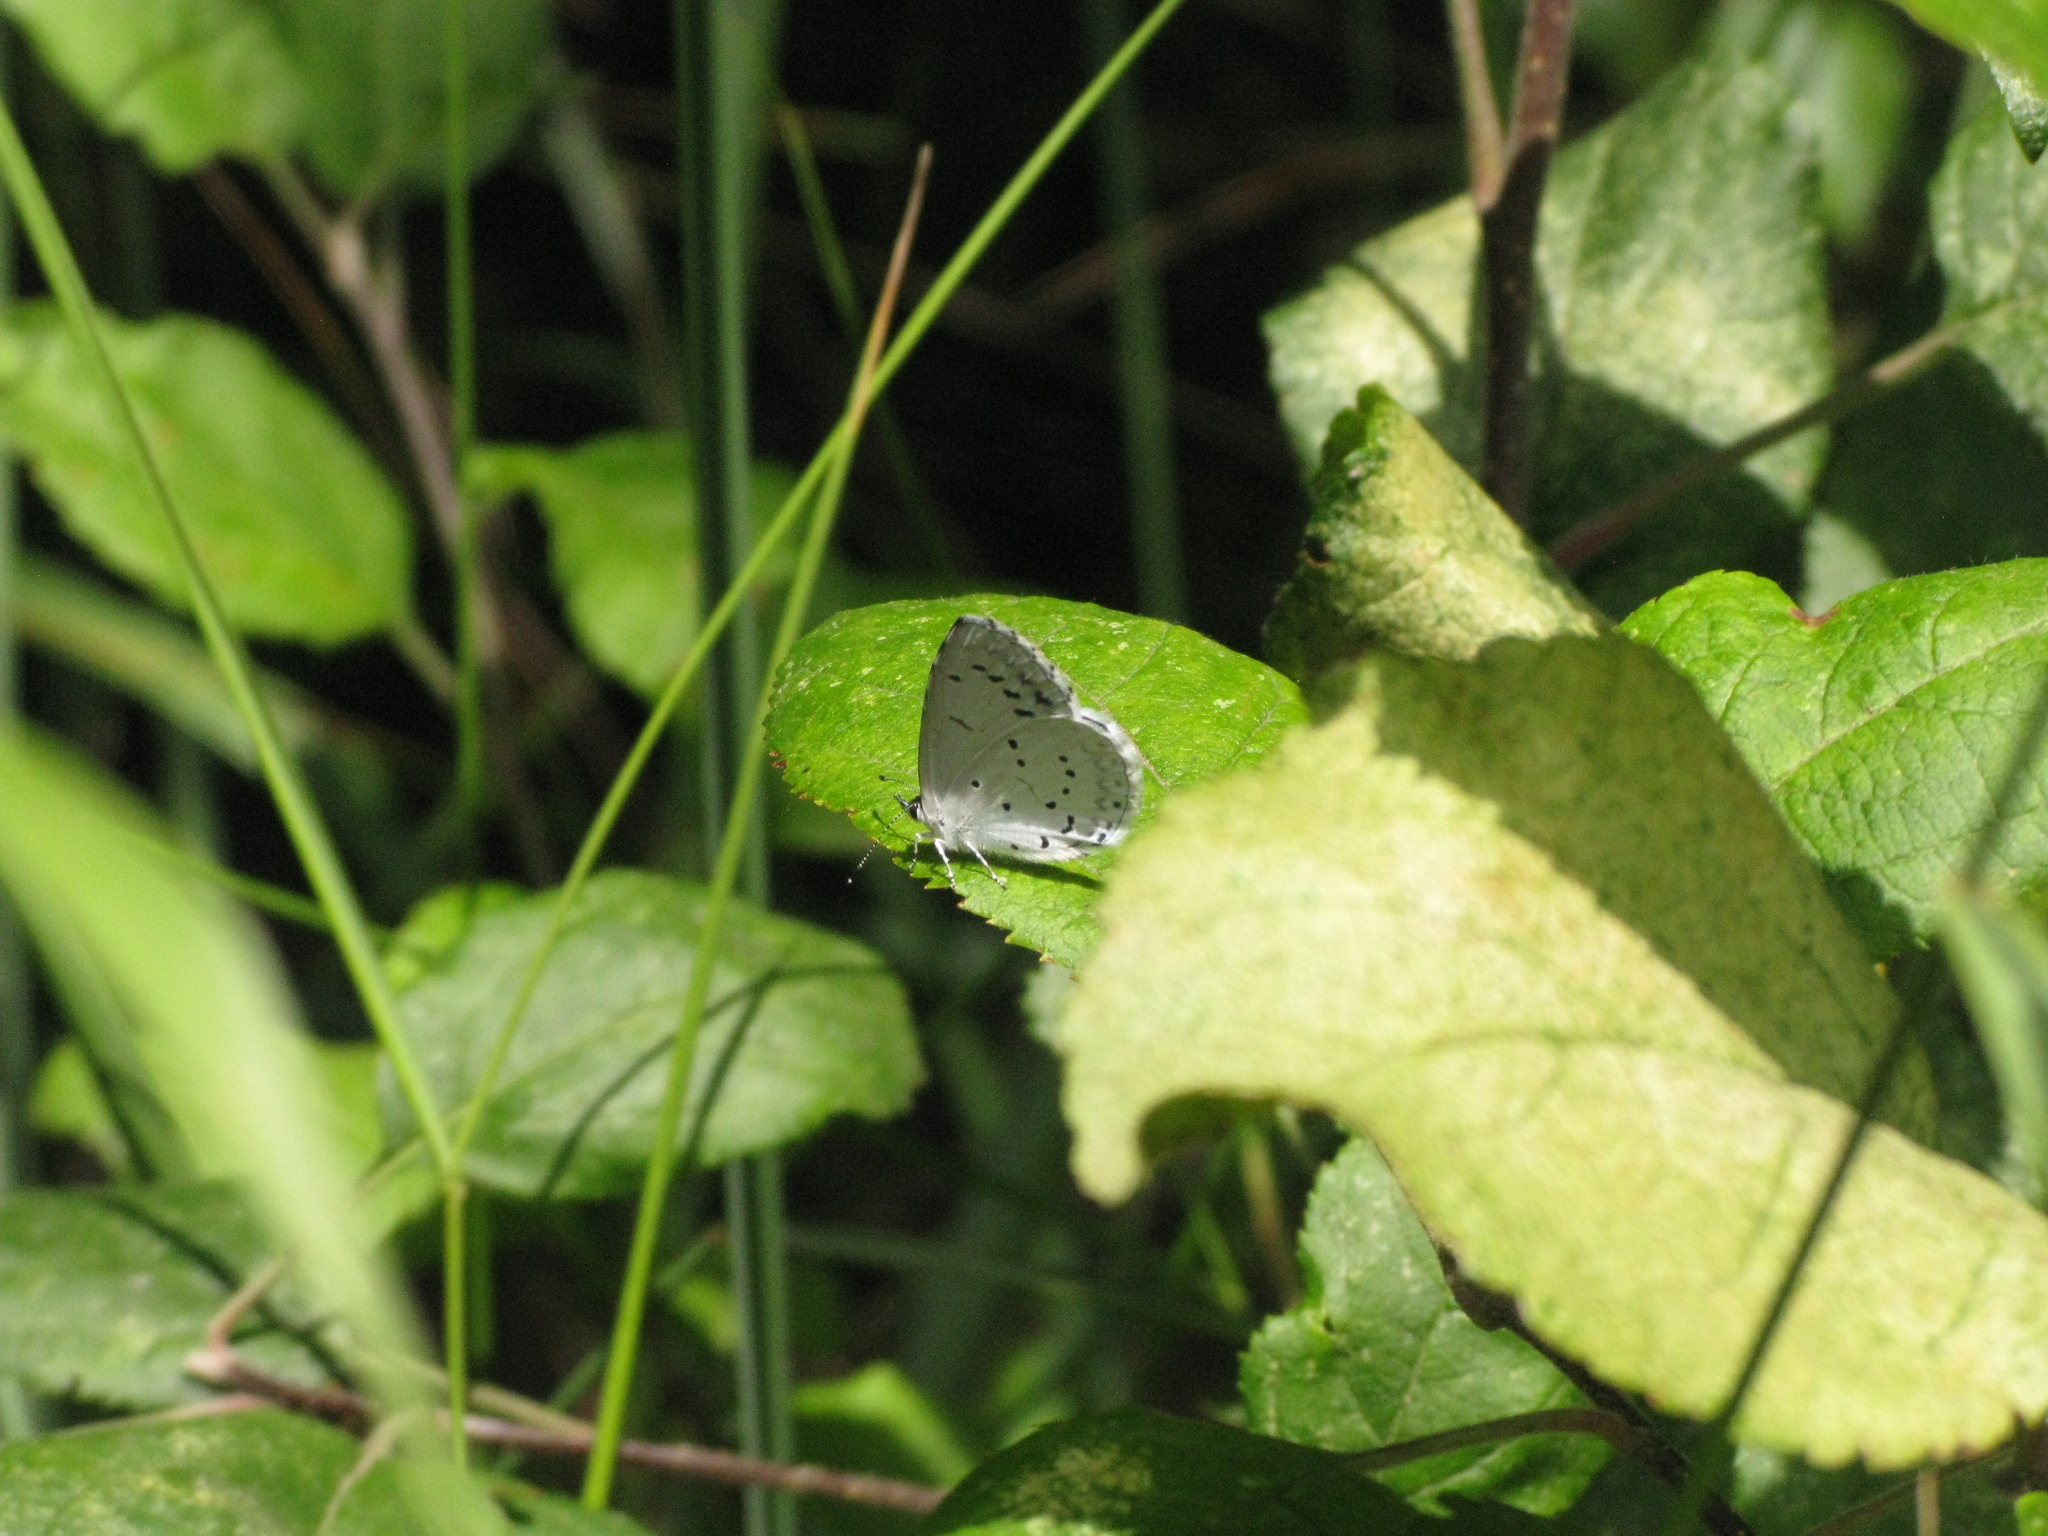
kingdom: Animalia
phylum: Arthropoda
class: Insecta
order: Lepidoptera
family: Lycaenidae
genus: Celastrina
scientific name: Celastrina argiolus
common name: Holly blue
